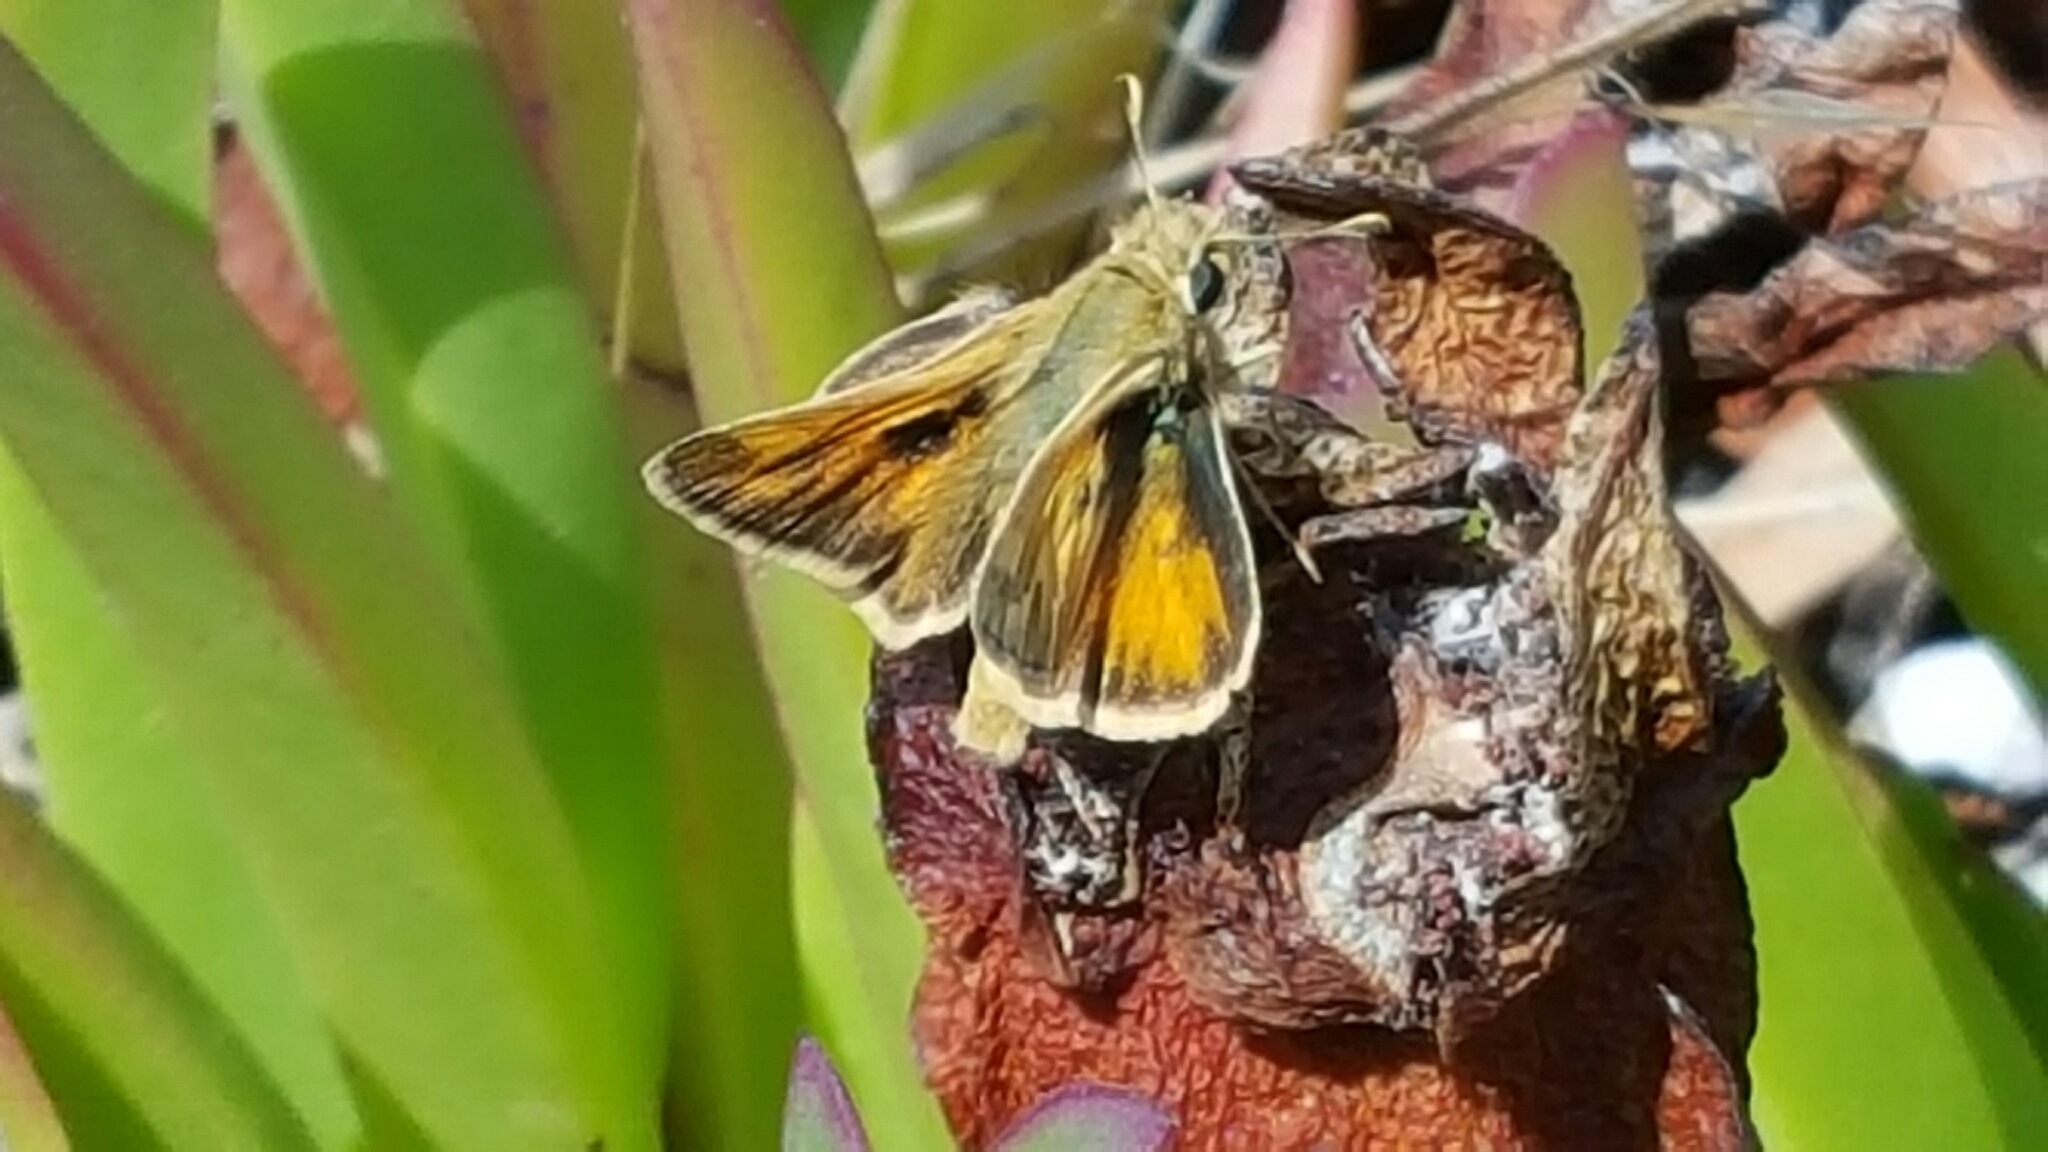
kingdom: Animalia
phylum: Arthropoda
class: Insecta
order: Lepidoptera
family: Hesperiidae
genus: Polites
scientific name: Polites sabuleti
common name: Sandhill skipper
